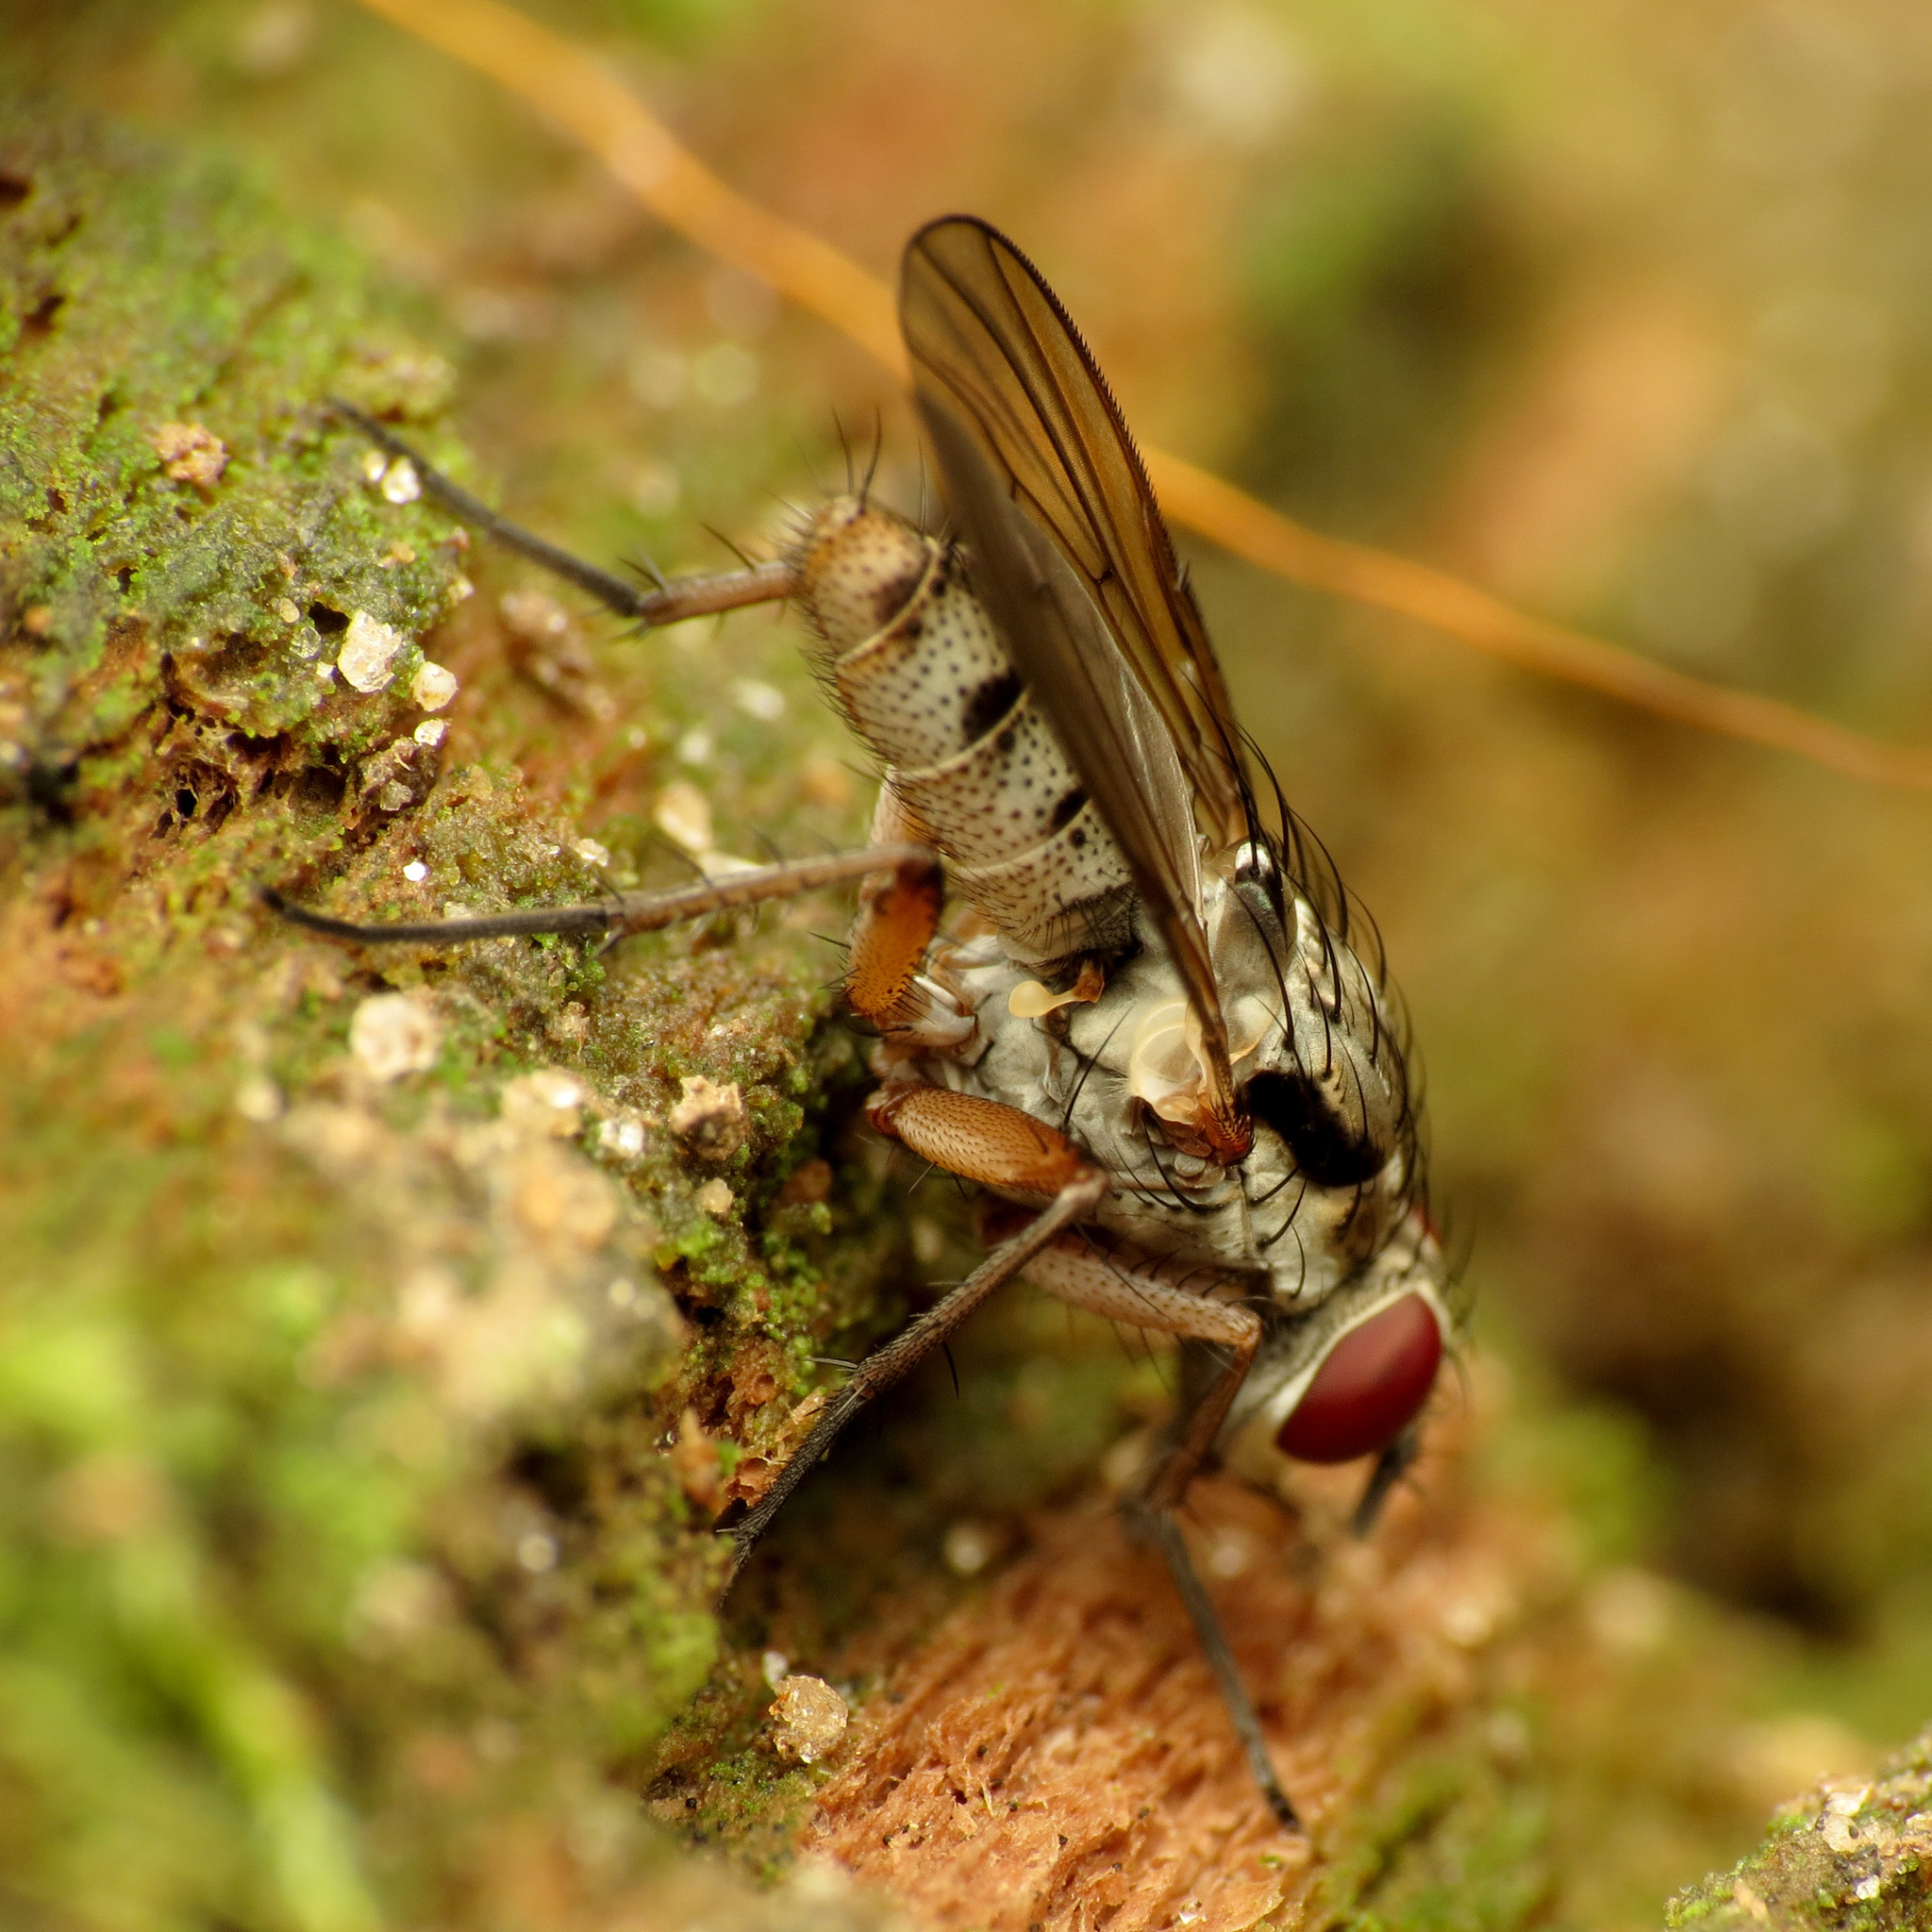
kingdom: Animalia
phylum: Arthropoda
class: Insecta
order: Diptera
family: Anthomyiidae
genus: Eustalomyia
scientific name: Eustalomyia vittipes
